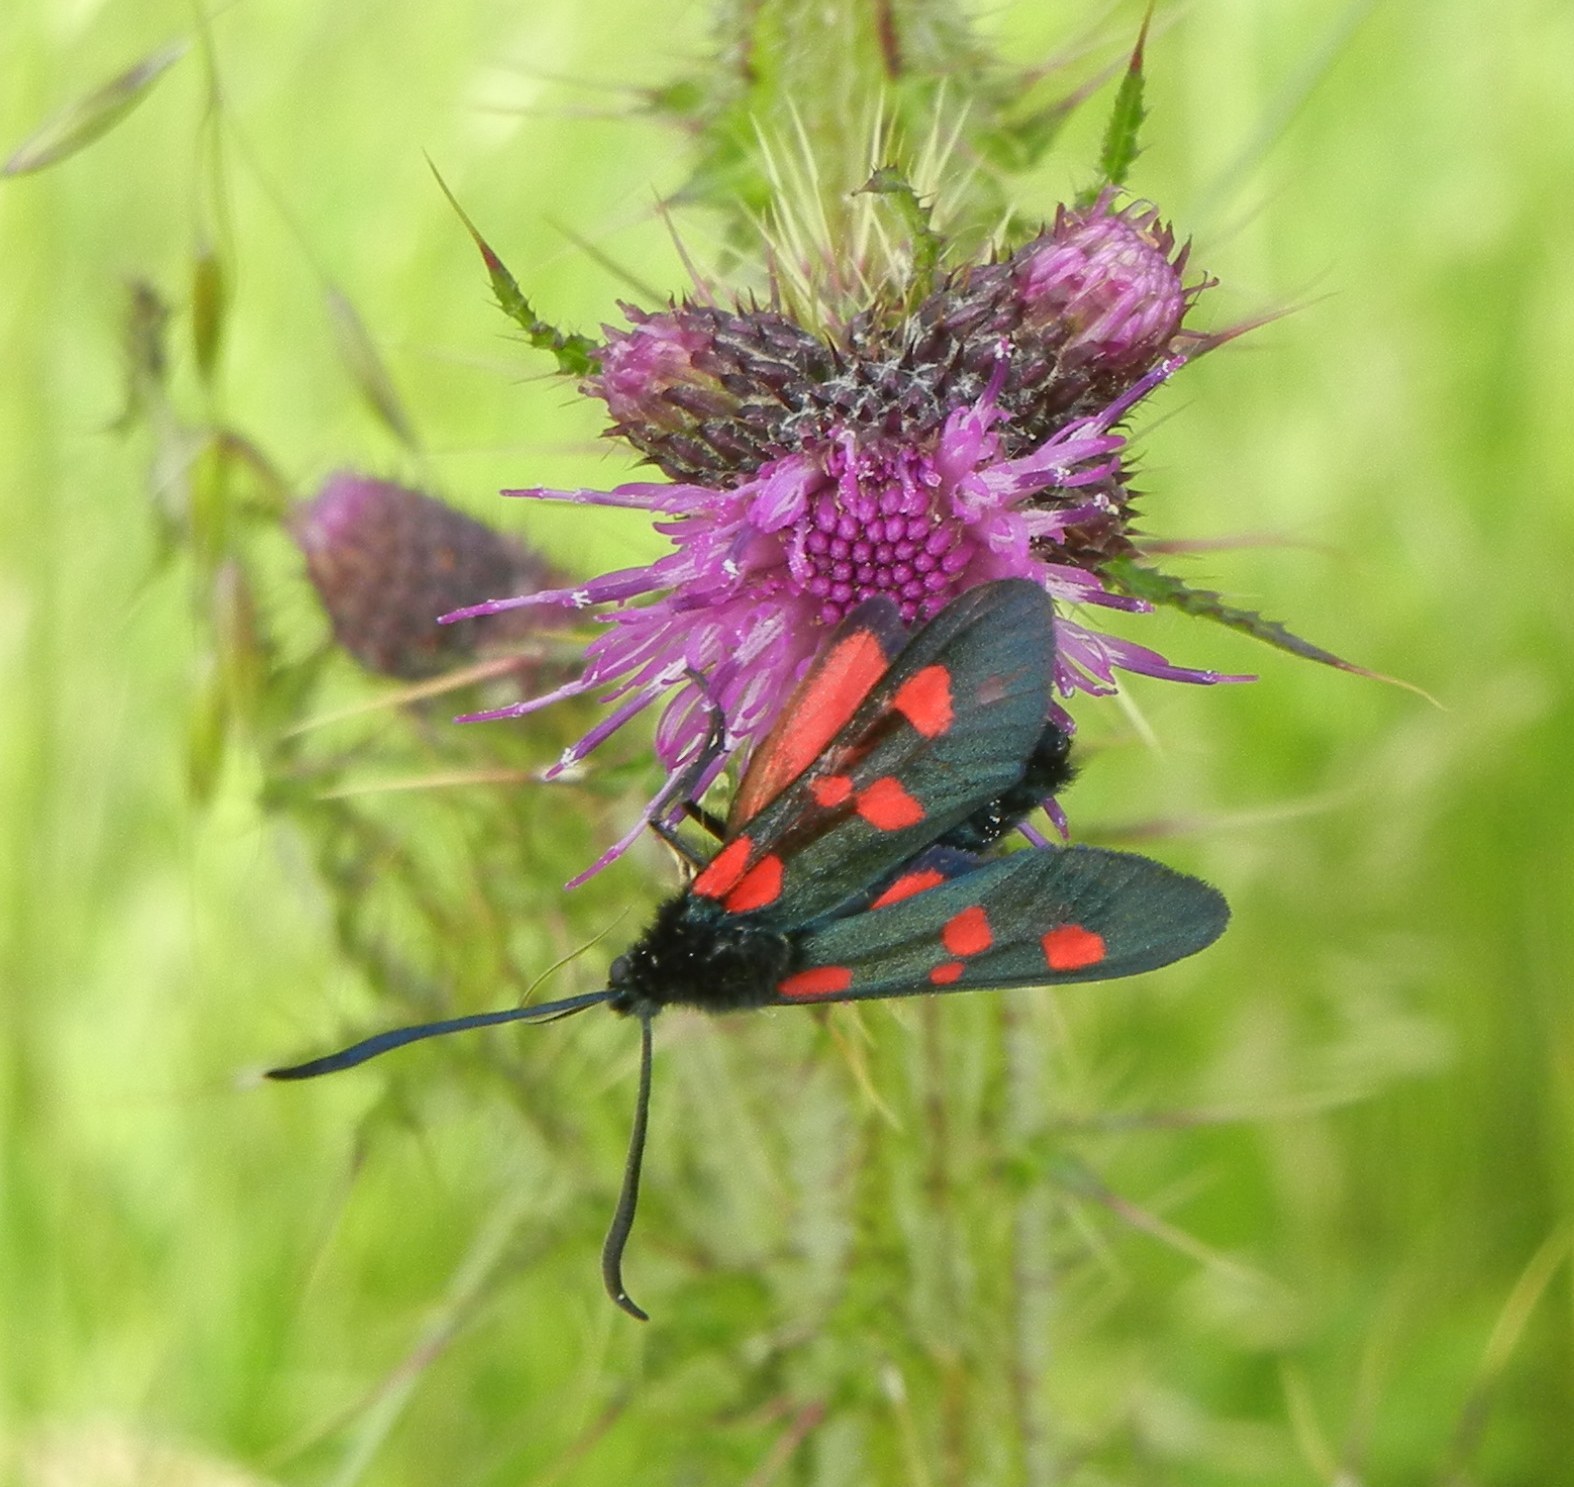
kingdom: Animalia
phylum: Arthropoda
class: Insecta
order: Lepidoptera
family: Zygaenidae
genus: Zygaena
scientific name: Zygaena lonicerae
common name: Narrow-bordered five-spot burnet
